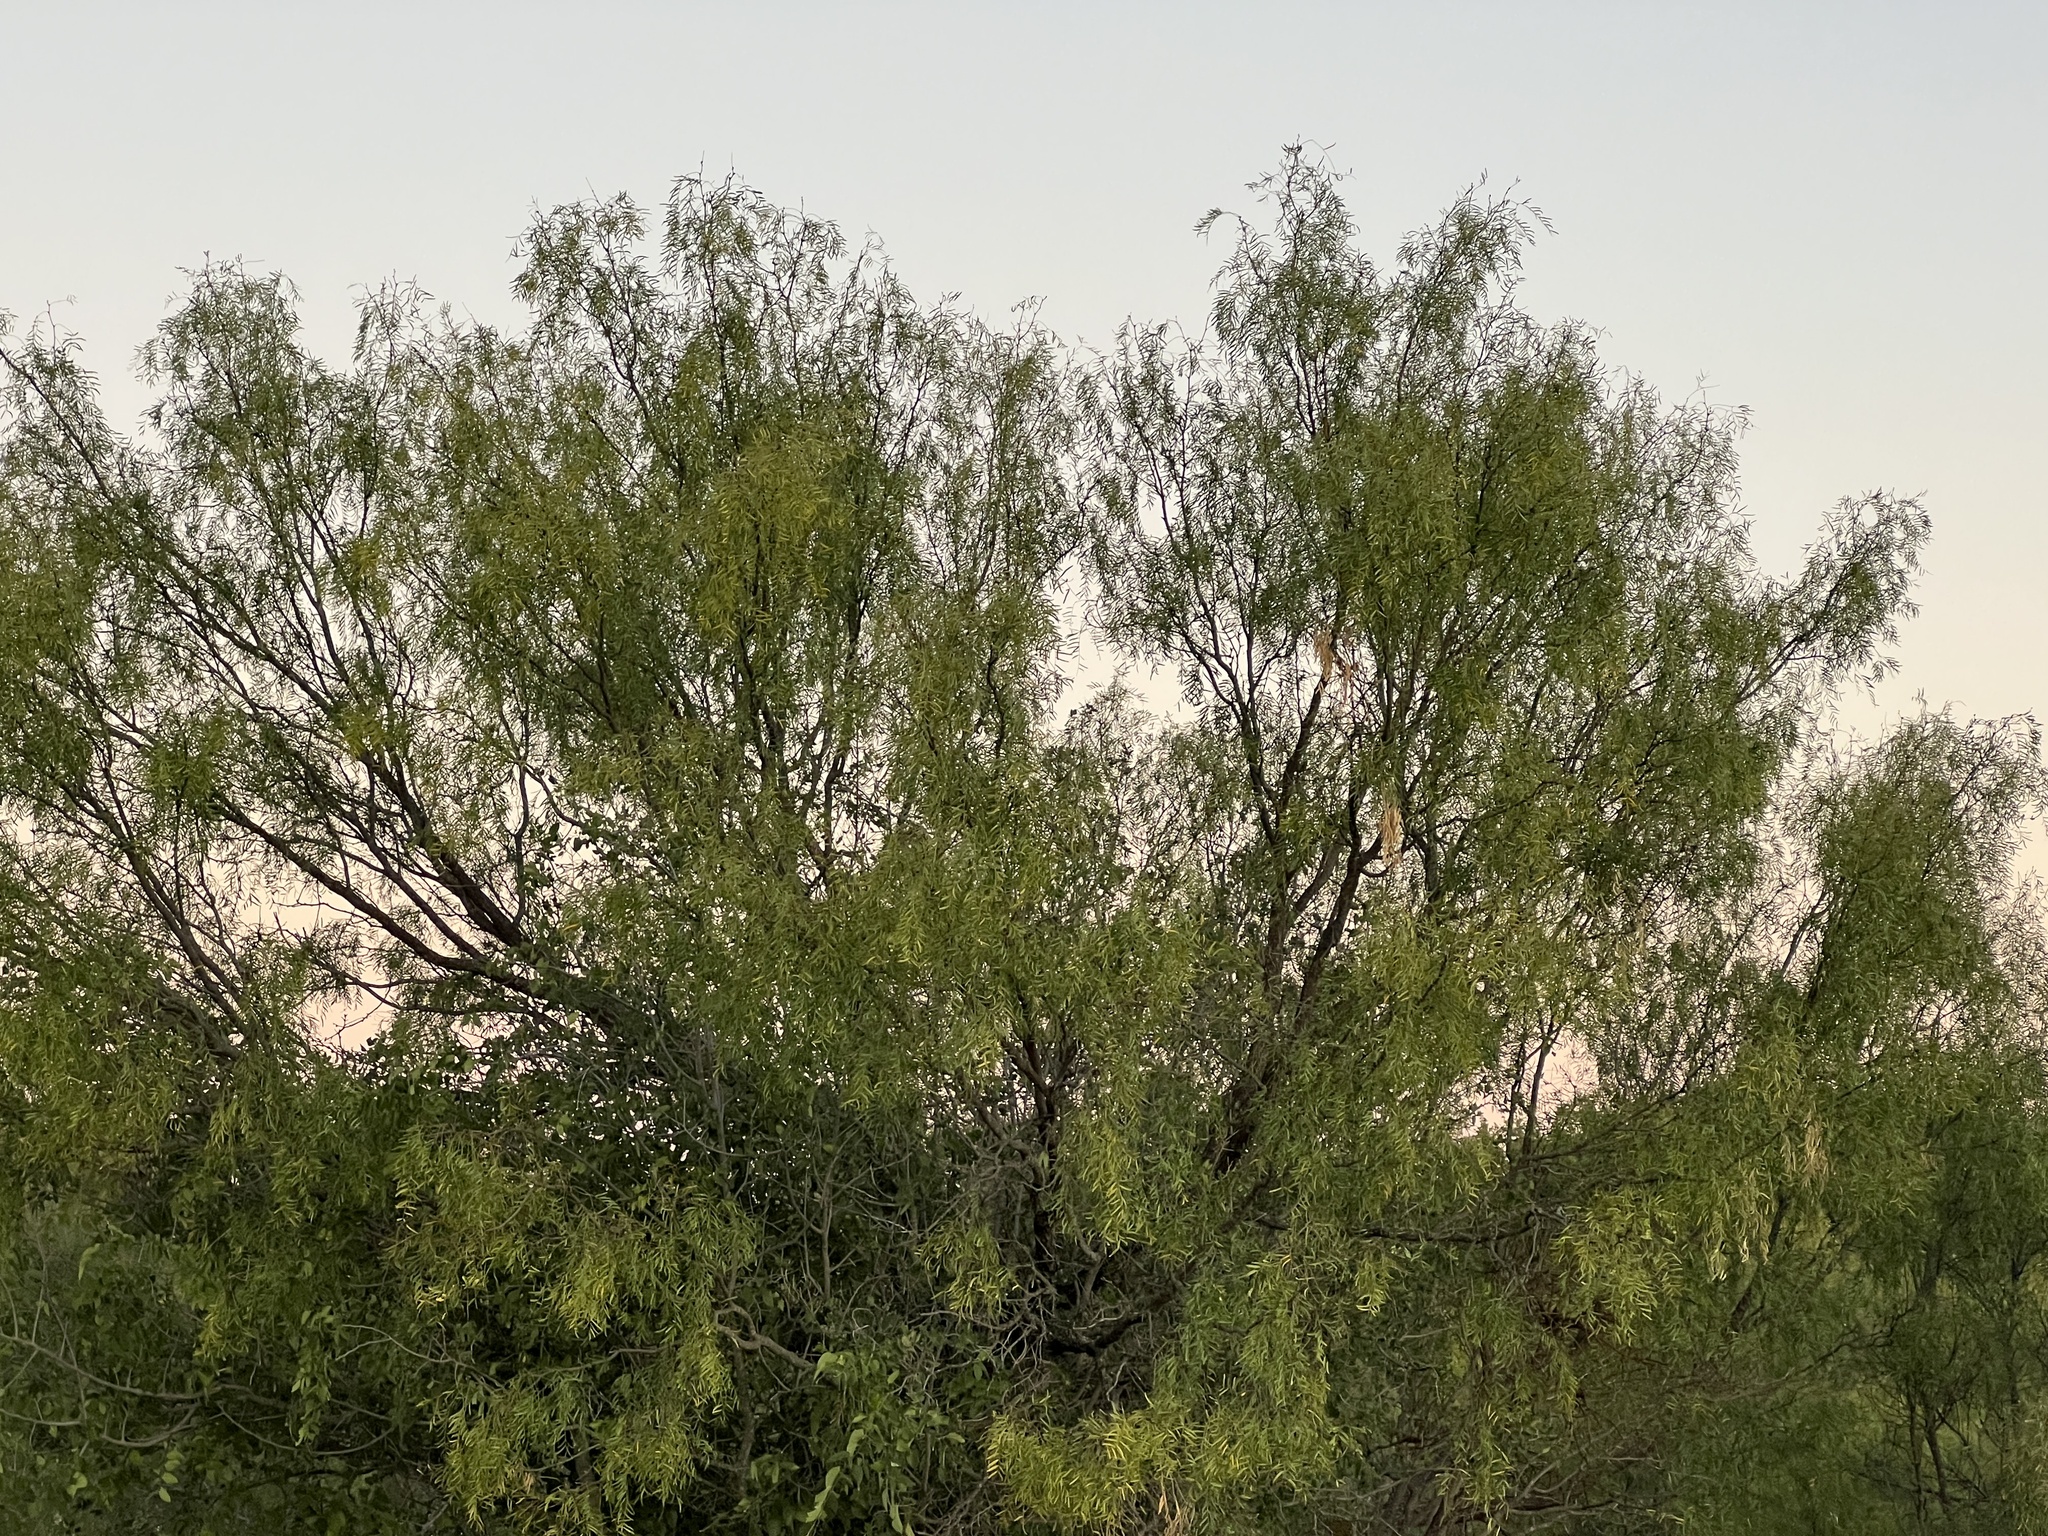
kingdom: Plantae
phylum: Tracheophyta
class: Magnoliopsida
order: Fabales
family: Fabaceae
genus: Prosopis
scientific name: Prosopis glandulosa
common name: Honey mesquite
